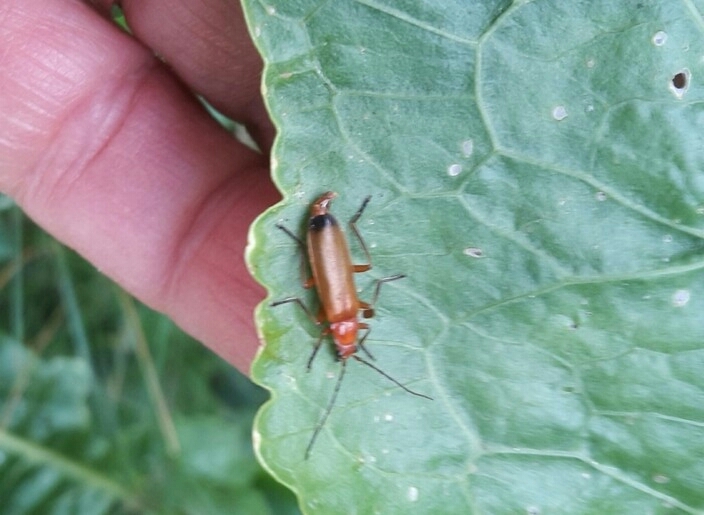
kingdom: Animalia
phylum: Arthropoda
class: Insecta
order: Coleoptera
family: Cantharidae
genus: Rhagonycha
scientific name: Rhagonycha fulva
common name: Common red soldier beetle
